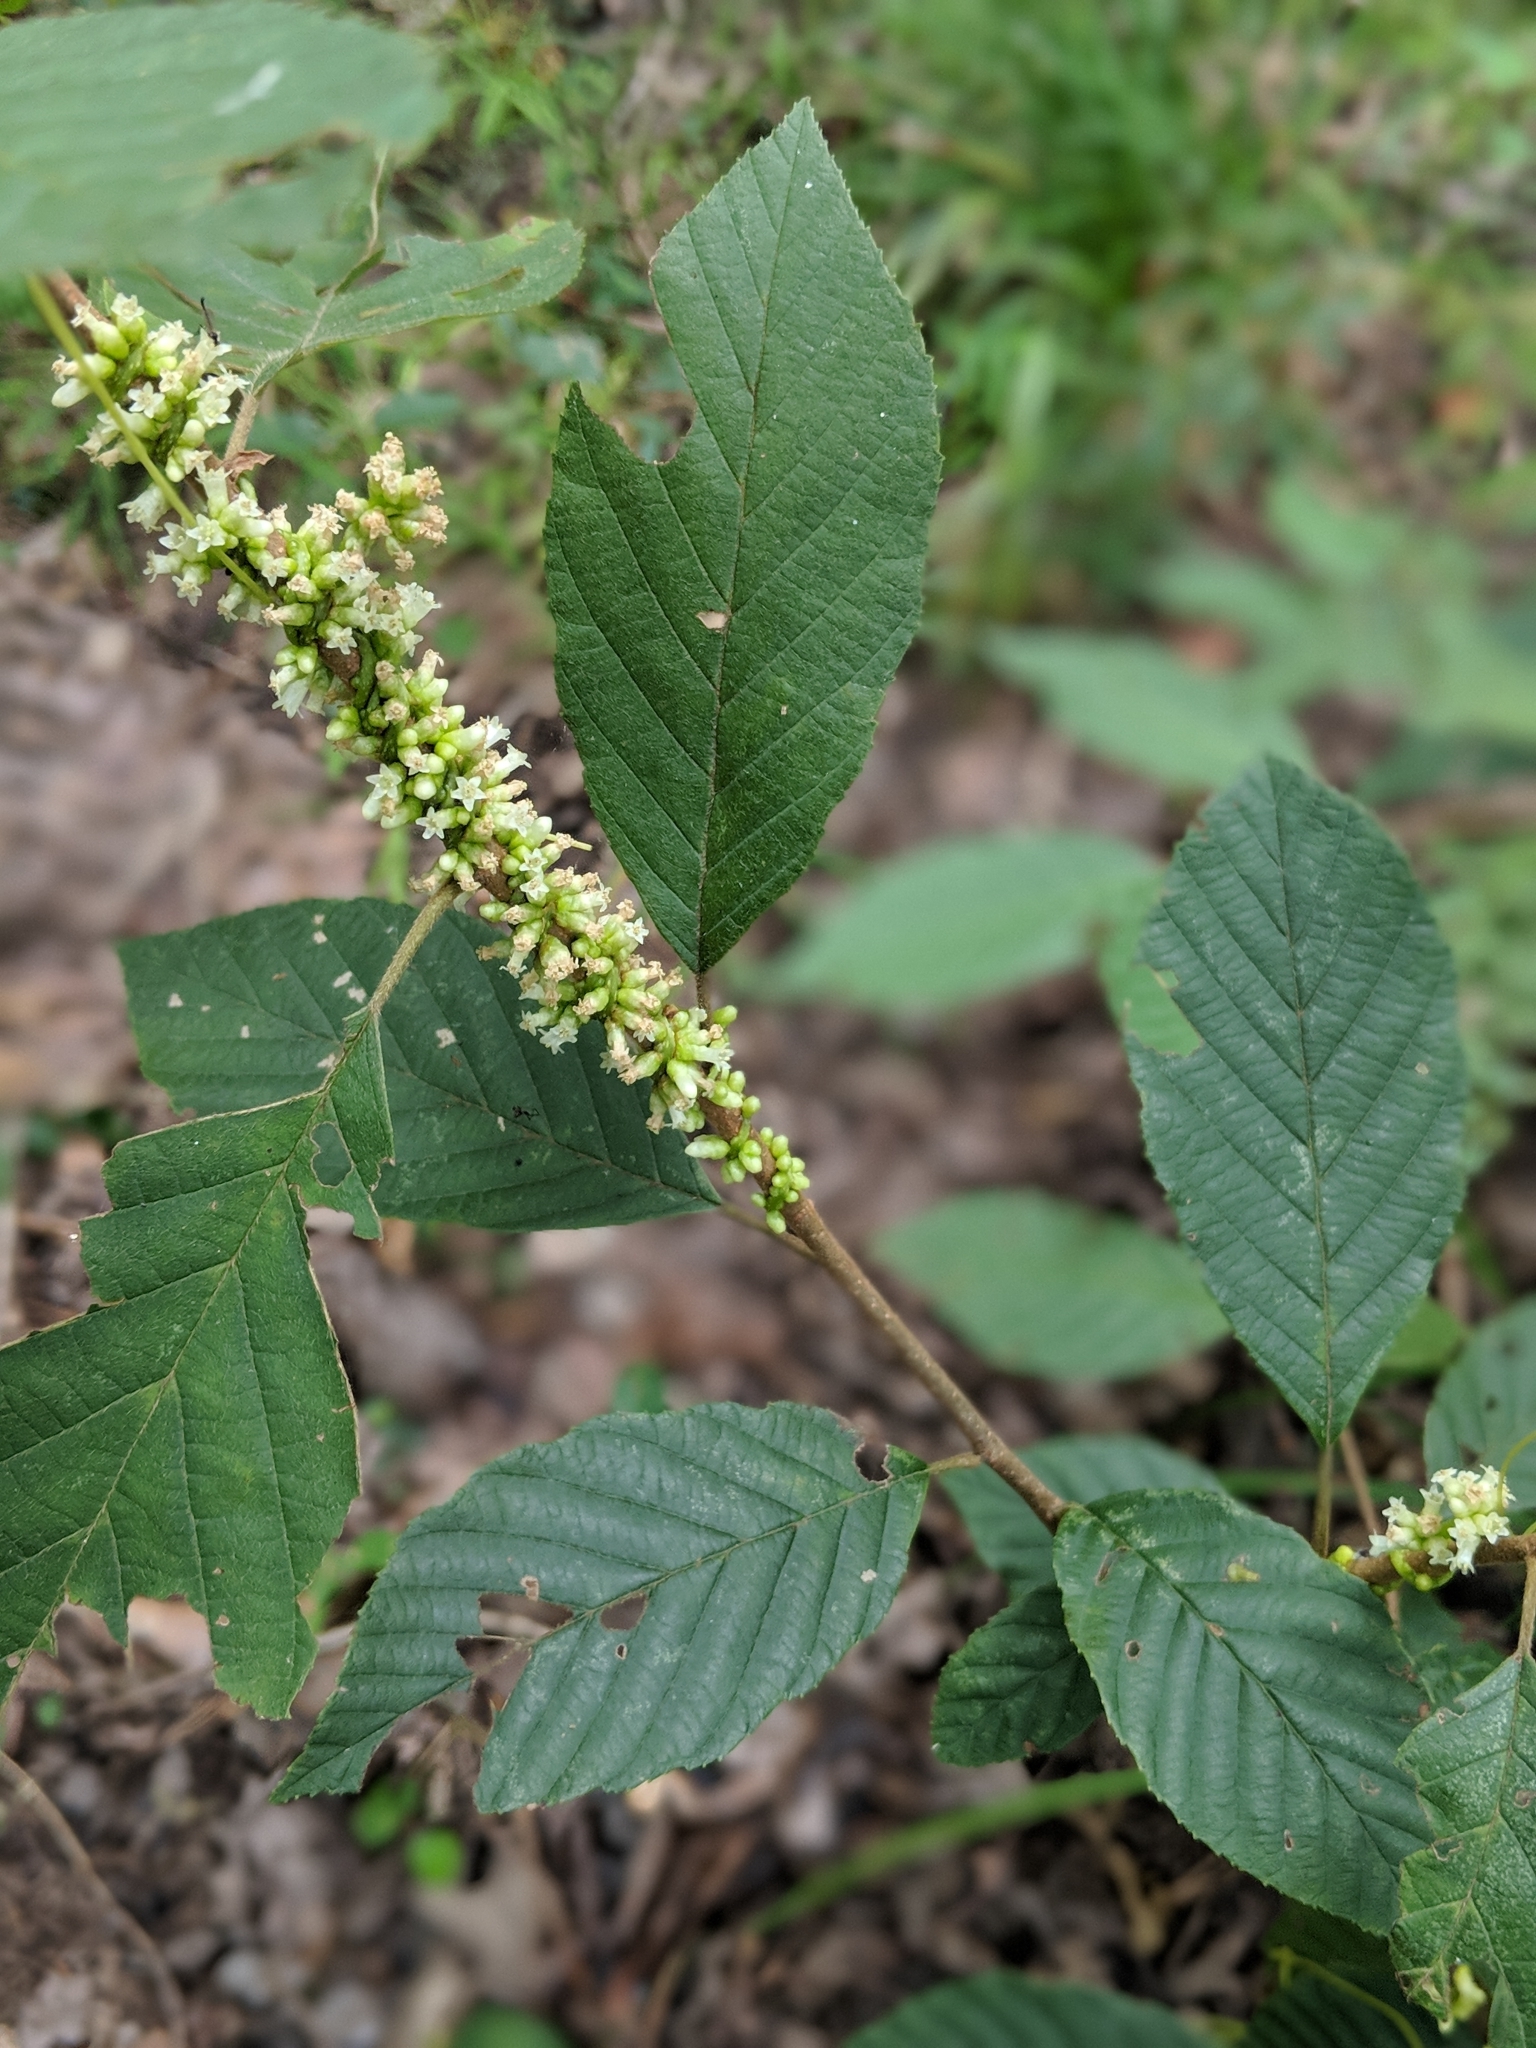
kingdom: Plantae
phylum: Tracheophyta
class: Magnoliopsida
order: Solanales
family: Convolvulaceae
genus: Cuscuta
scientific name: Cuscuta compacta
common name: Compact dodder
